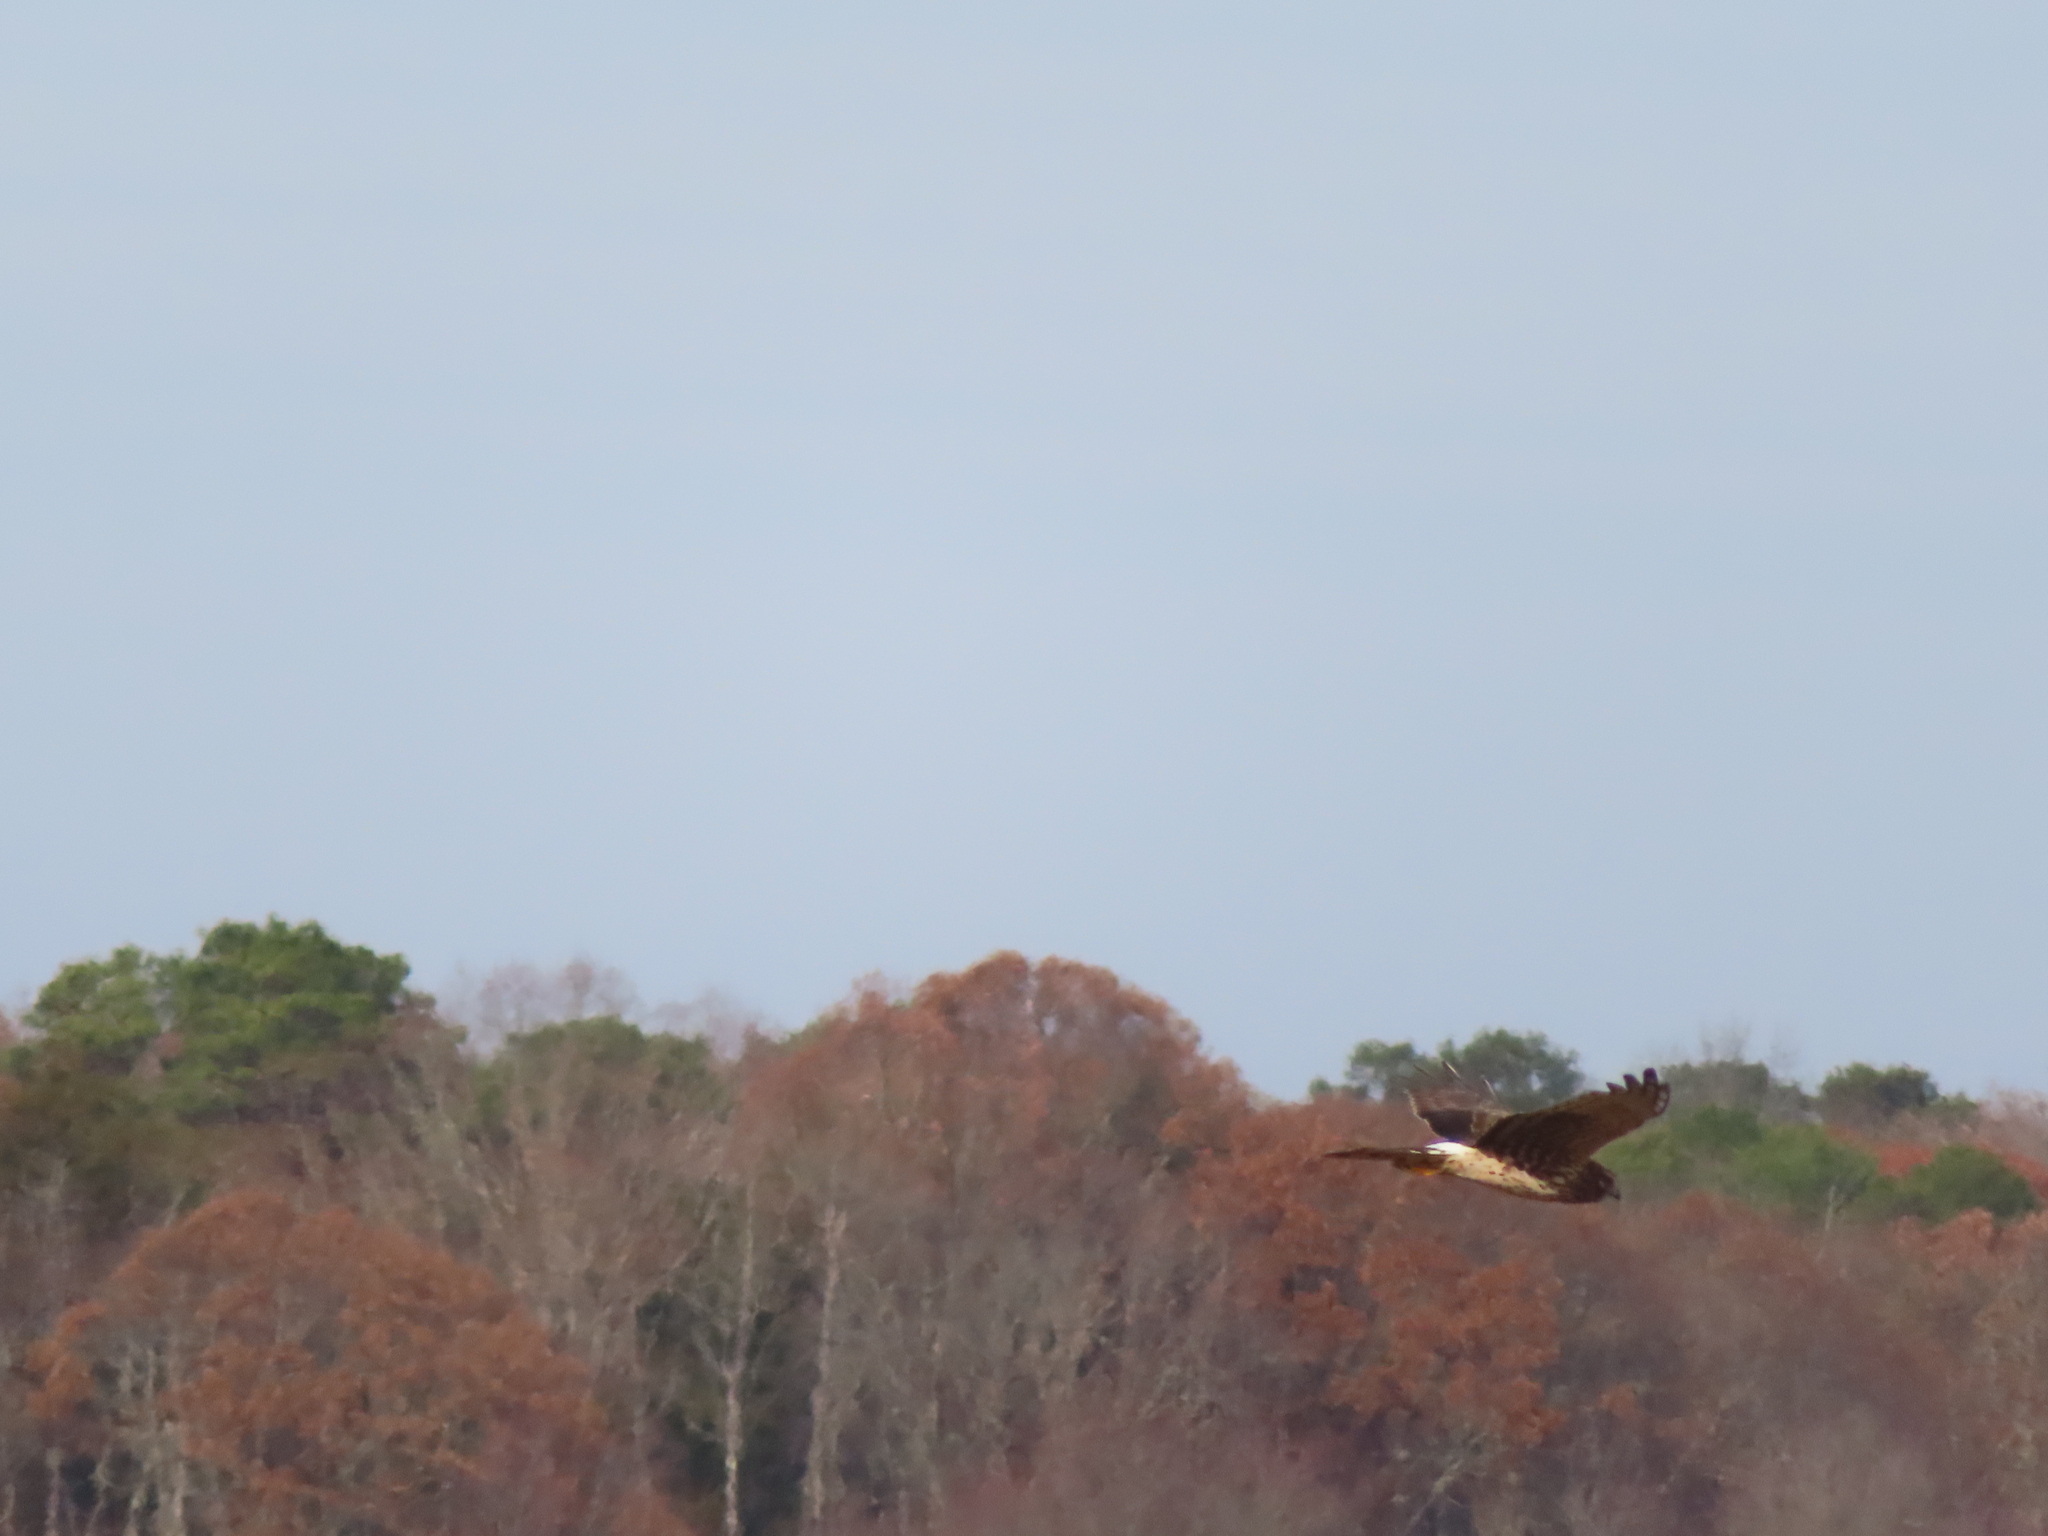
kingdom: Animalia
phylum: Chordata
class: Aves
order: Accipitriformes
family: Accipitridae
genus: Circus
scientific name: Circus cyaneus
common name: Hen harrier
